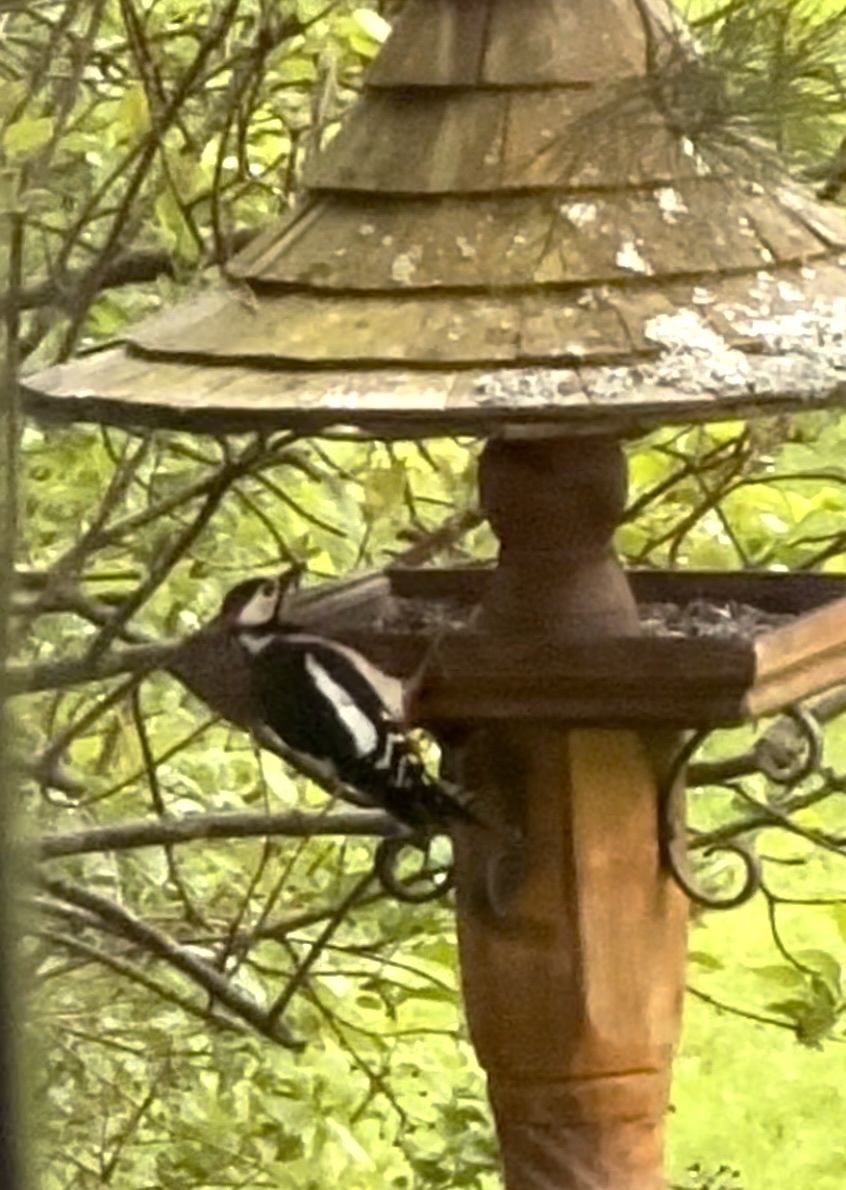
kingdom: Animalia
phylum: Chordata
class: Aves
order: Piciformes
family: Picidae
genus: Dendrocopos
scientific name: Dendrocopos major
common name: Great spotted woodpecker
